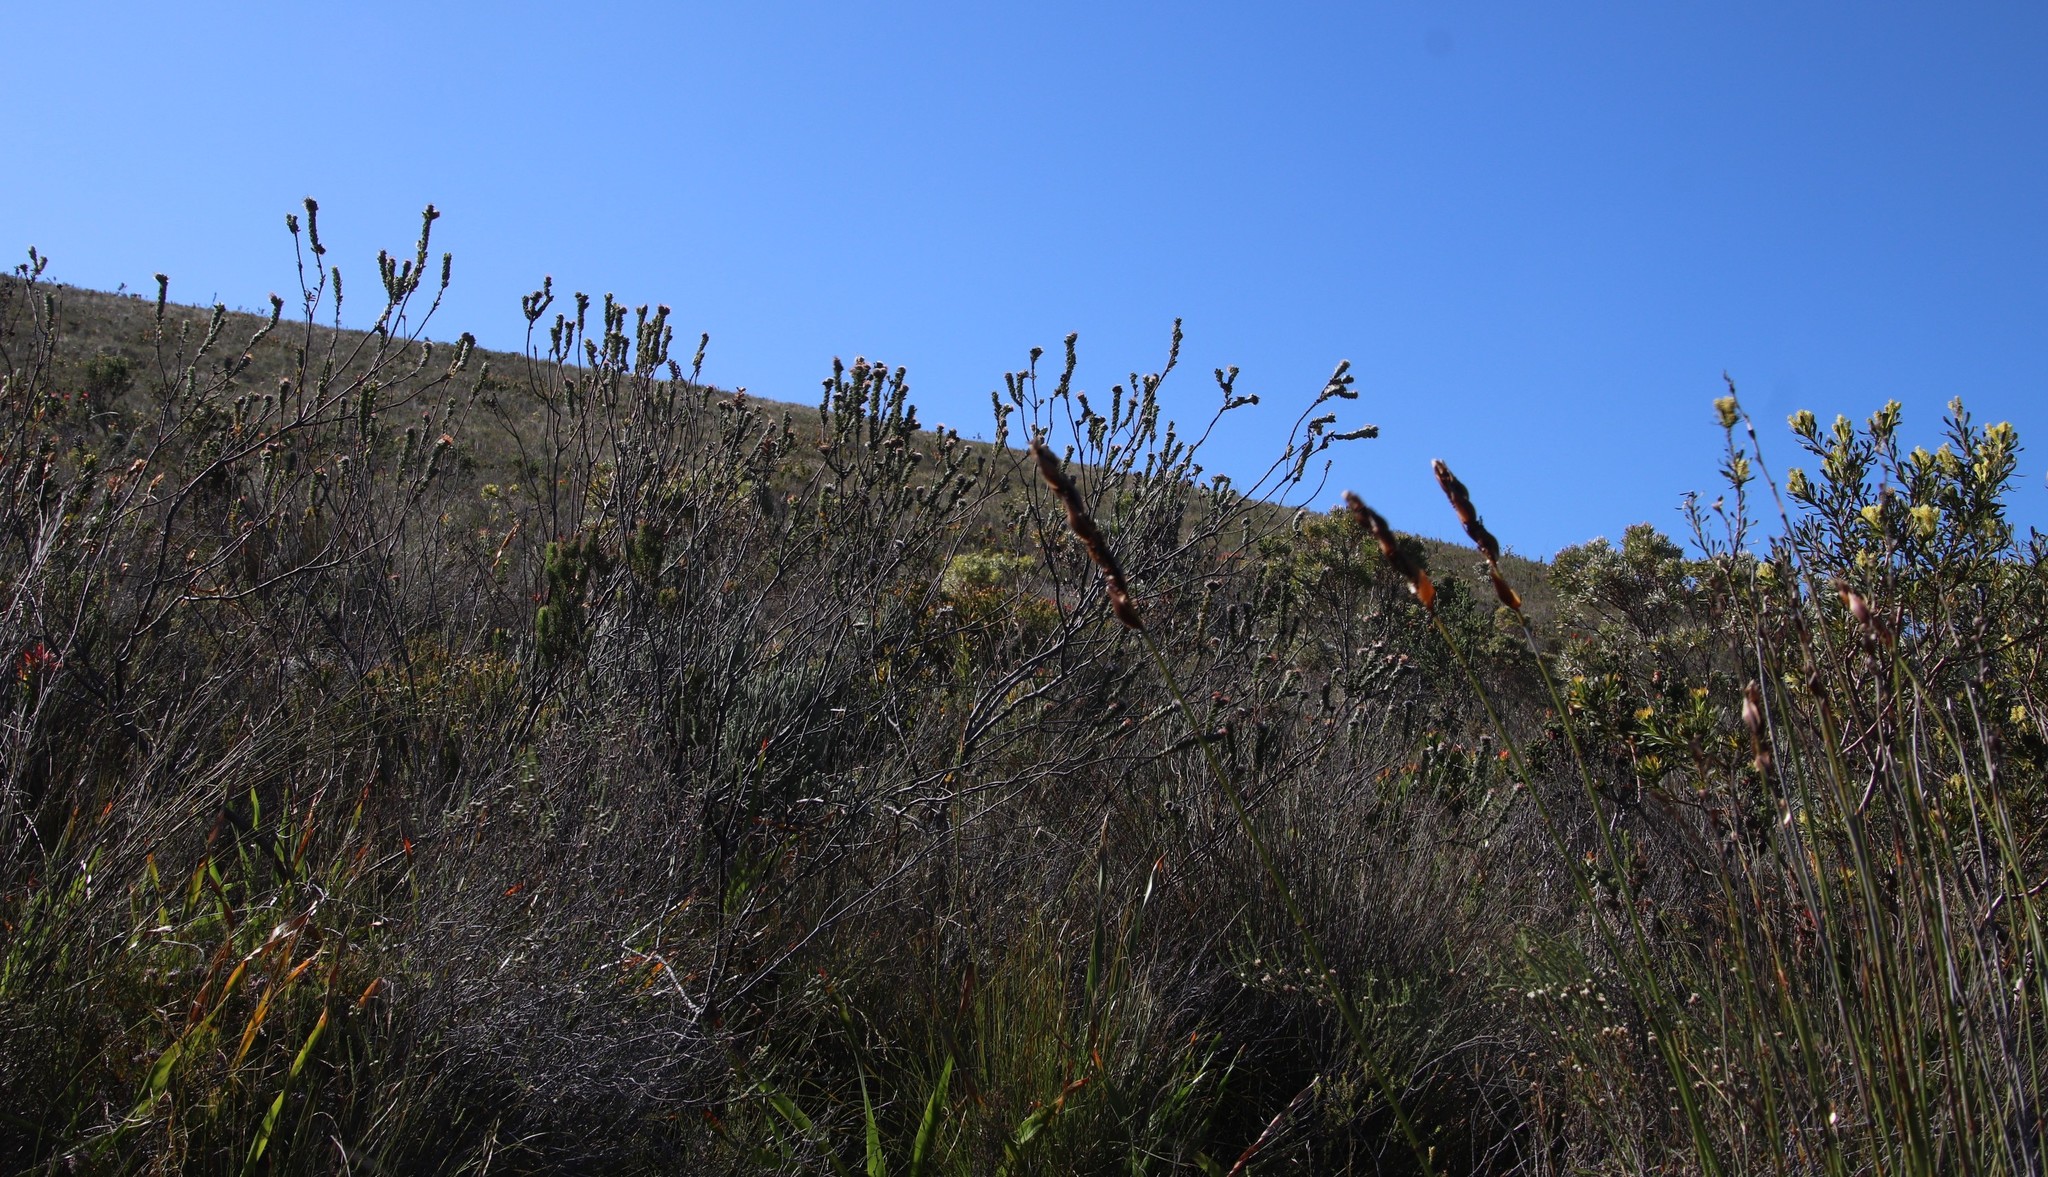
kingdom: Plantae
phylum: Tracheophyta
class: Magnoliopsida
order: Proteales
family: Proteaceae
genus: Leucospermum
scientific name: Leucospermum truncatulum
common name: Oval-leaf pincushion
